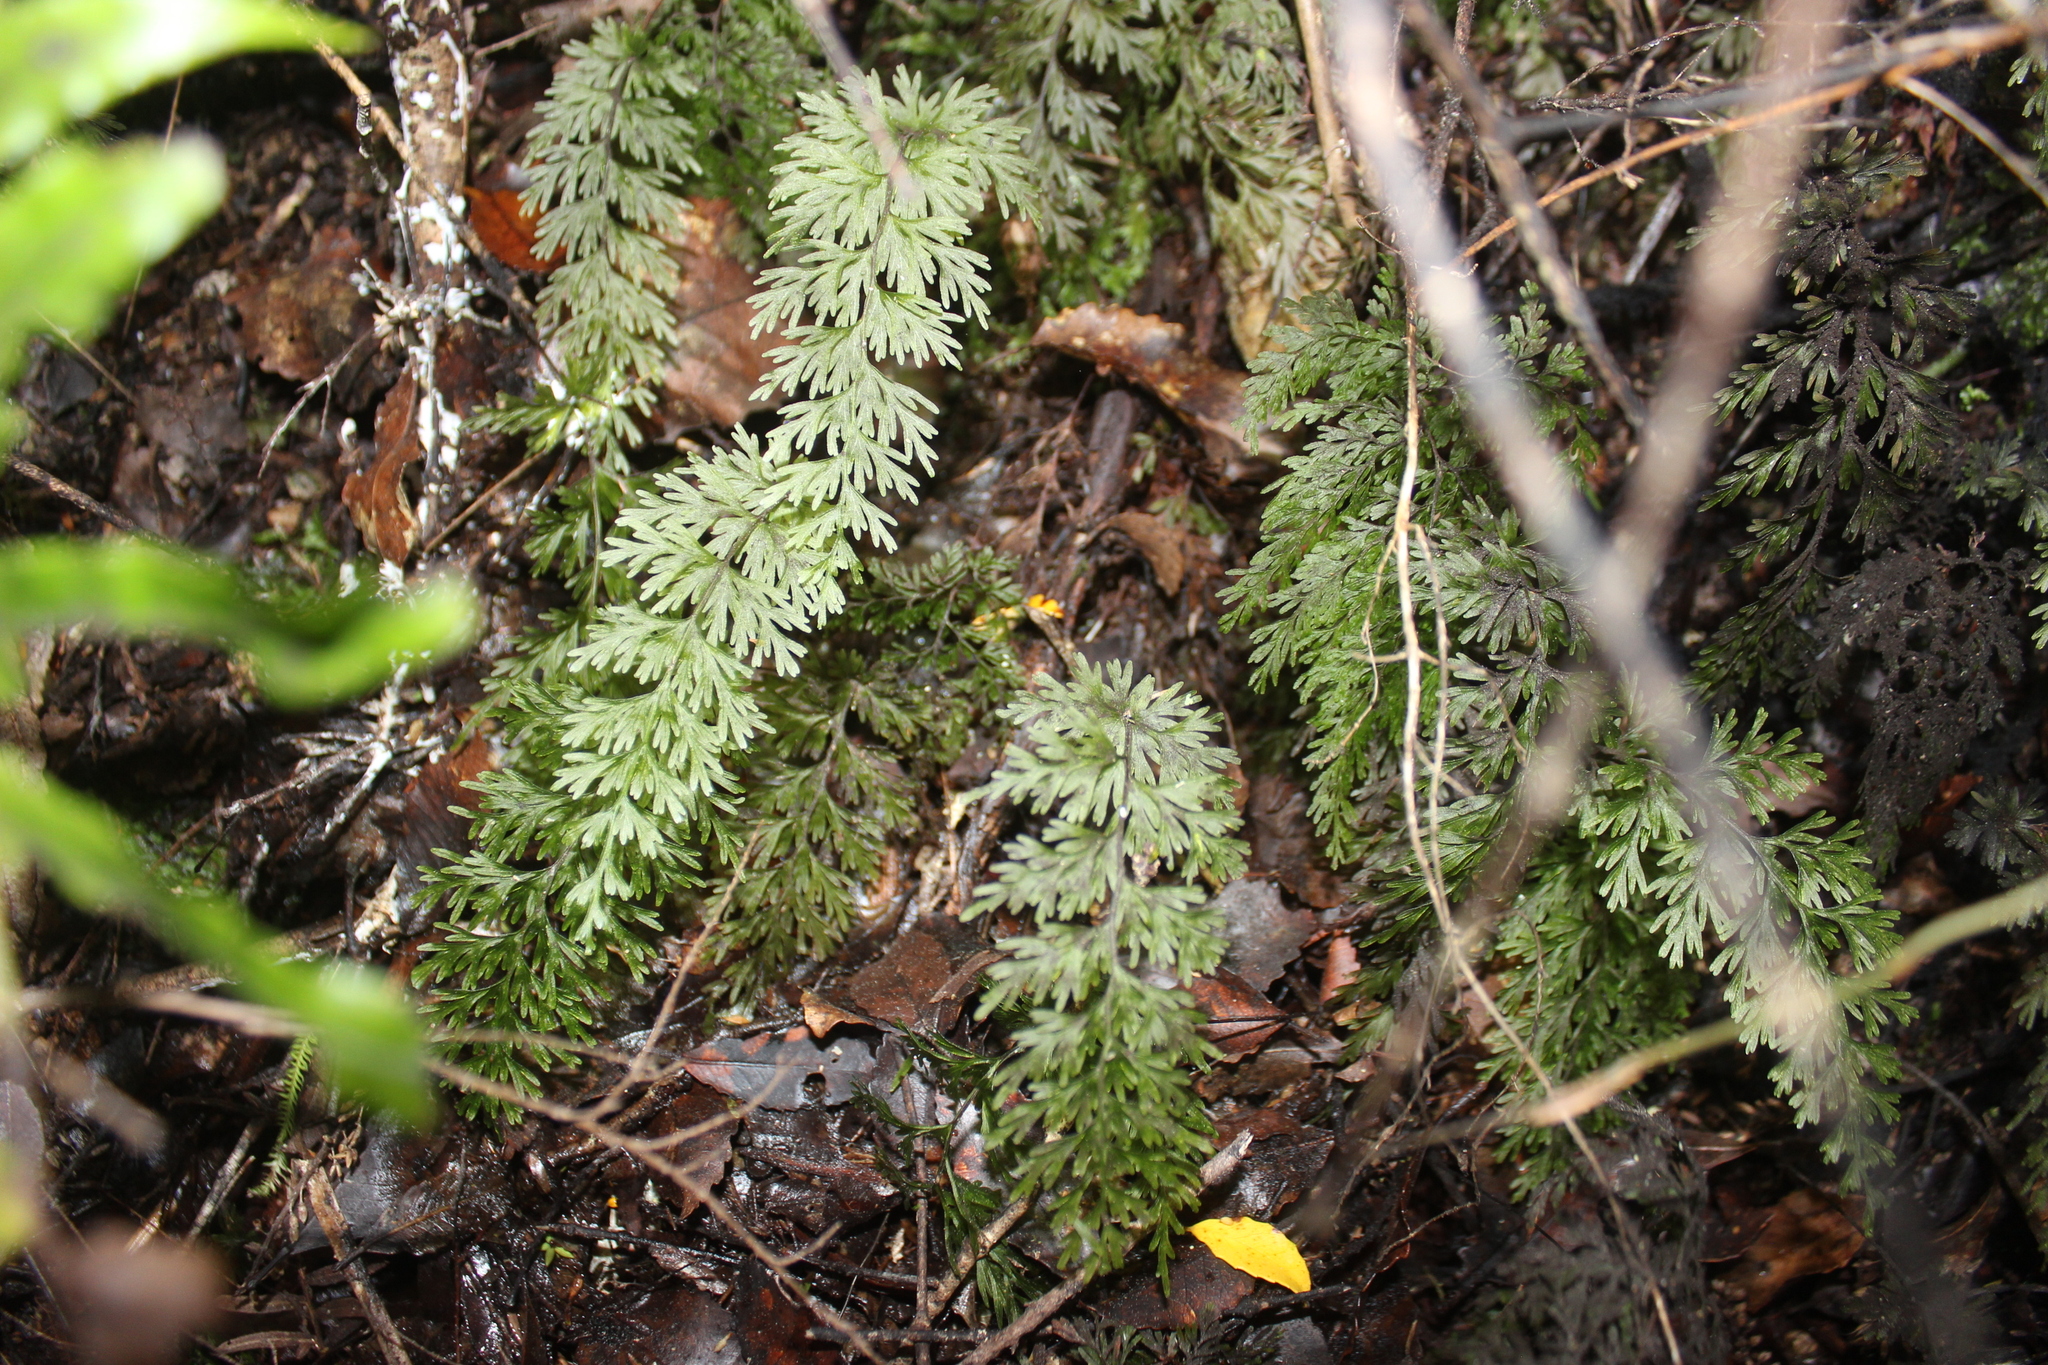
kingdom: Plantae
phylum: Tracheophyta
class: Polypodiopsida
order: Hymenophyllales
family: Hymenophyllaceae
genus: Hymenophyllum
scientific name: Hymenophyllum demissum
